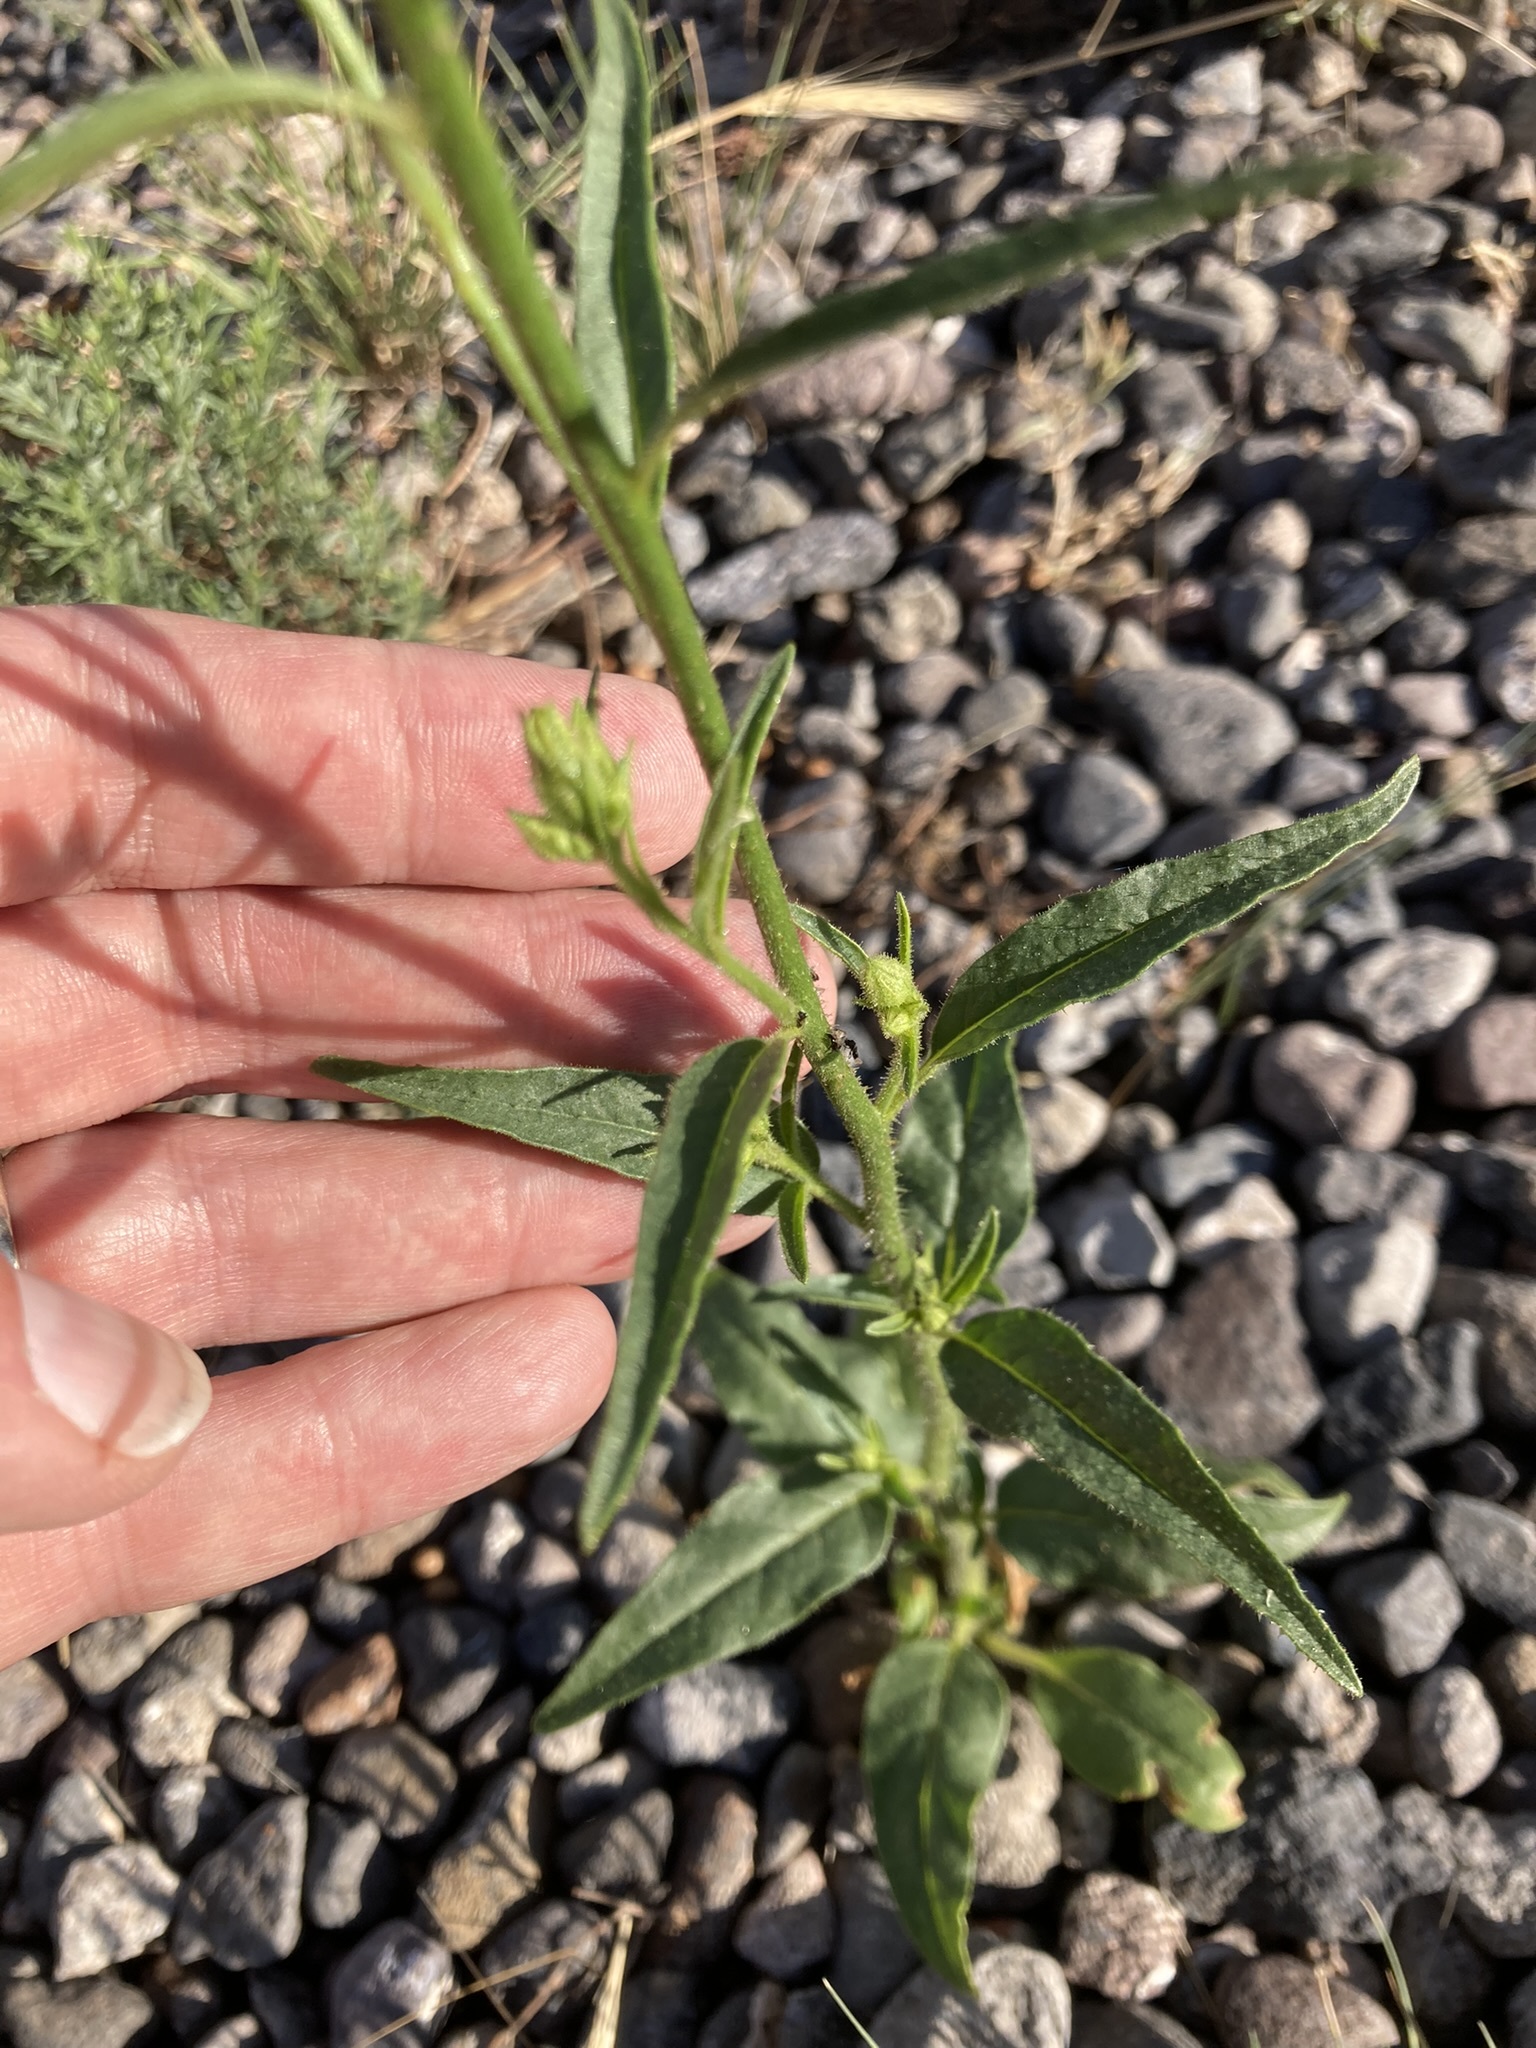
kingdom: Plantae
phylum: Tracheophyta
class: Magnoliopsida
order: Solanales
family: Solanaceae
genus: Nicotiana
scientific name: Nicotiana attenuata
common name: Coyote tobacco
